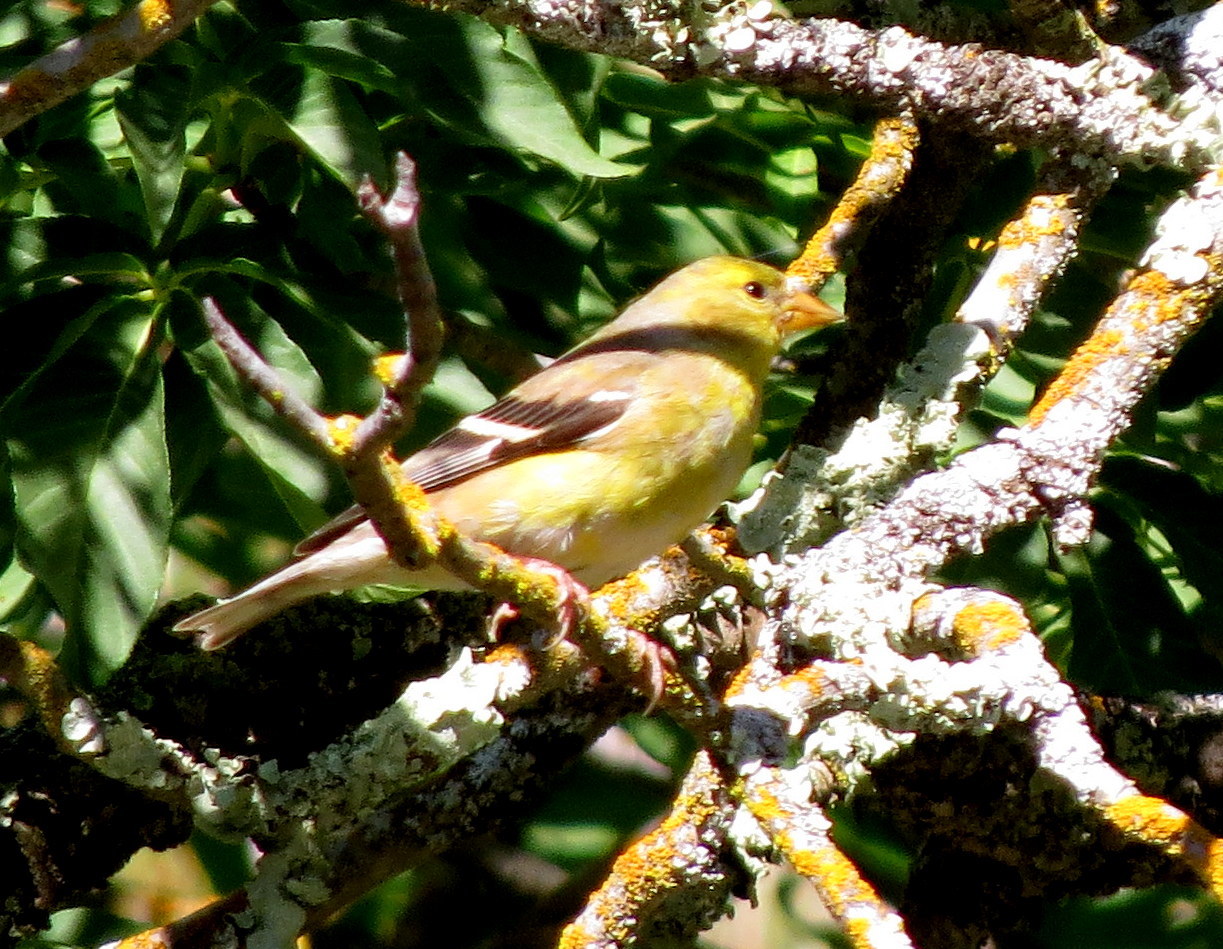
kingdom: Animalia
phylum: Chordata
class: Aves
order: Passeriformes
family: Fringillidae
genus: Spinus
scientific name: Spinus tristis
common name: American goldfinch
